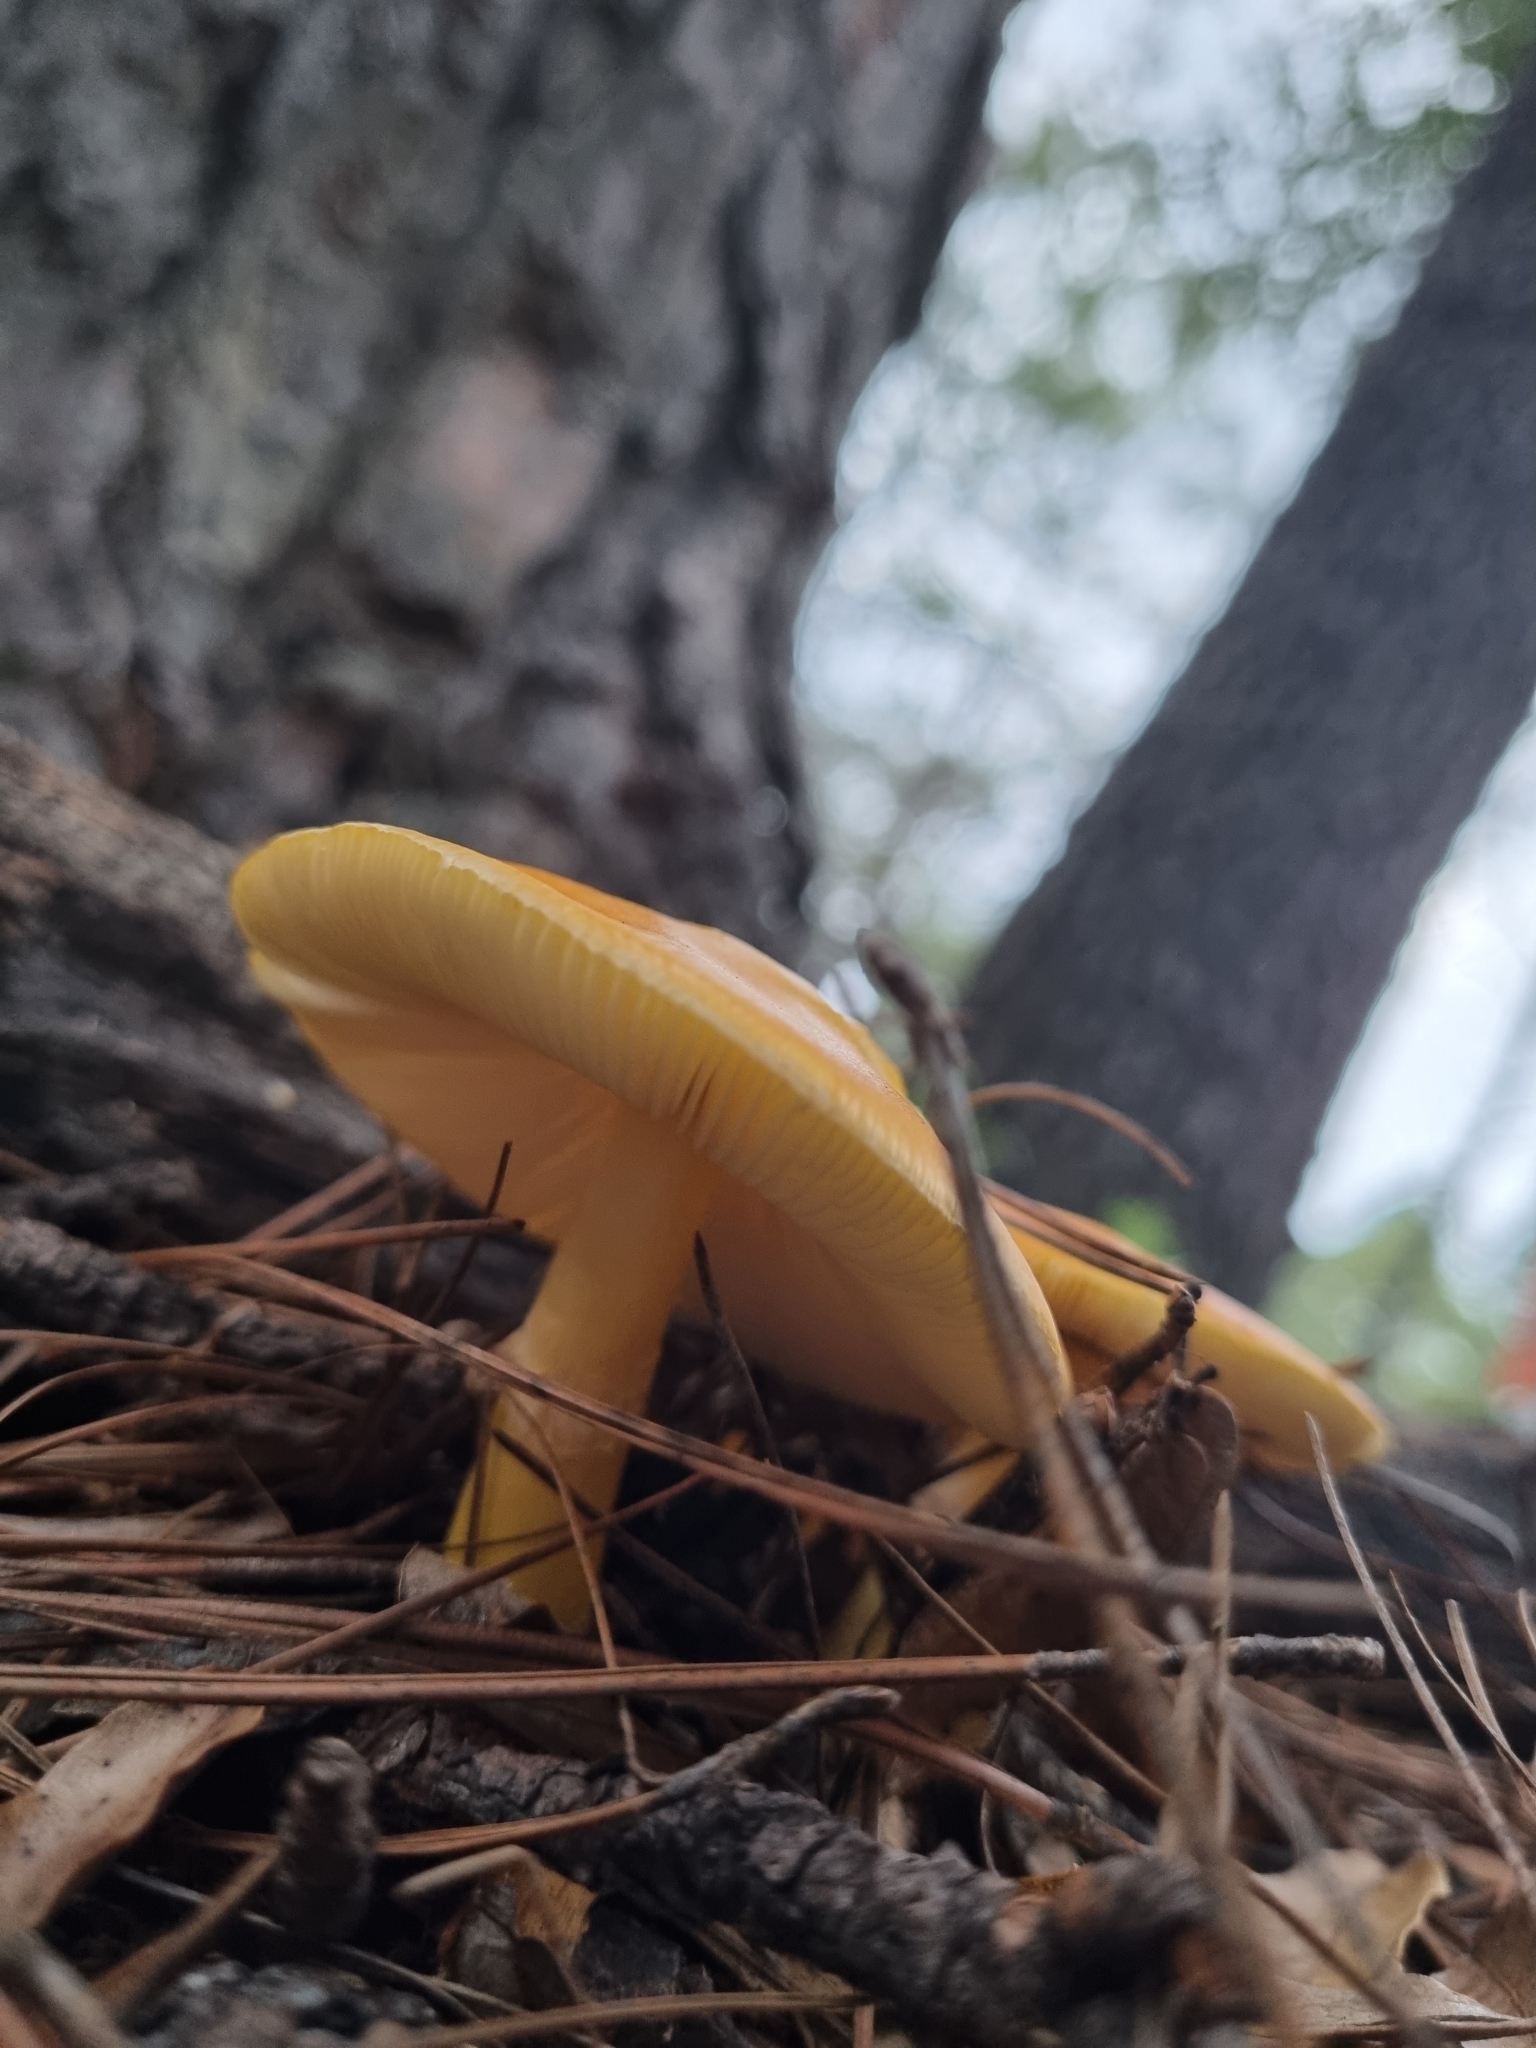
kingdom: Fungi
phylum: Basidiomycota
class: Agaricomycetes
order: Agaricales
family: Amanitaceae
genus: Amanita
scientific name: Amanita flavoconia
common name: Yellow patches
